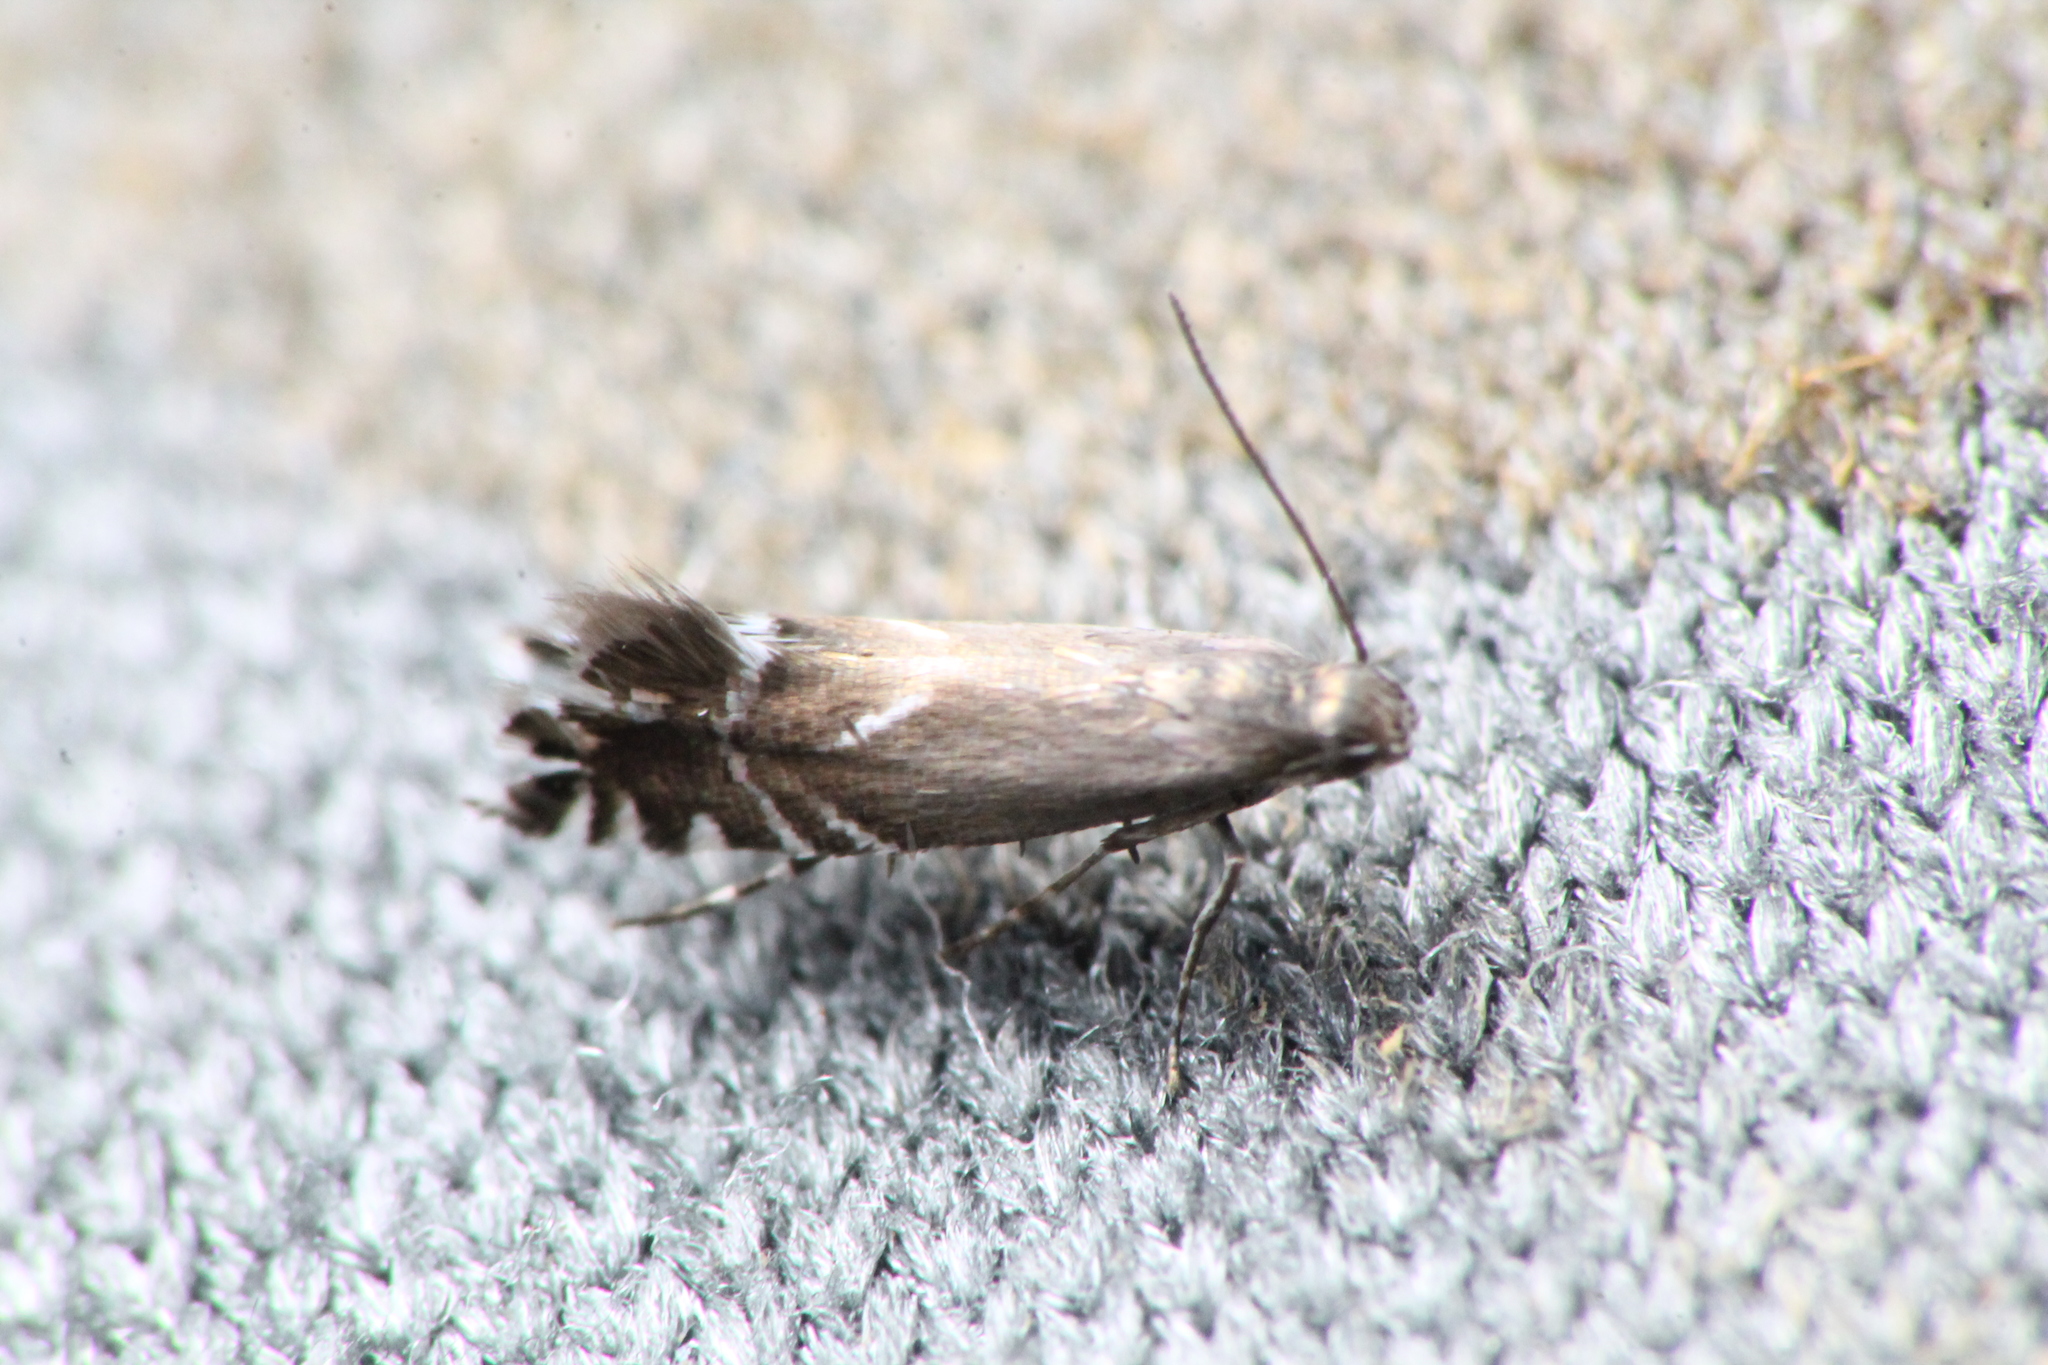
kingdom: Animalia
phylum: Arthropoda
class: Insecta
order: Lepidoptera
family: Glyphipterigidae
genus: Glyphipterix
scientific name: Glyphipterix simpliciella
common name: Cocksfoot moth
